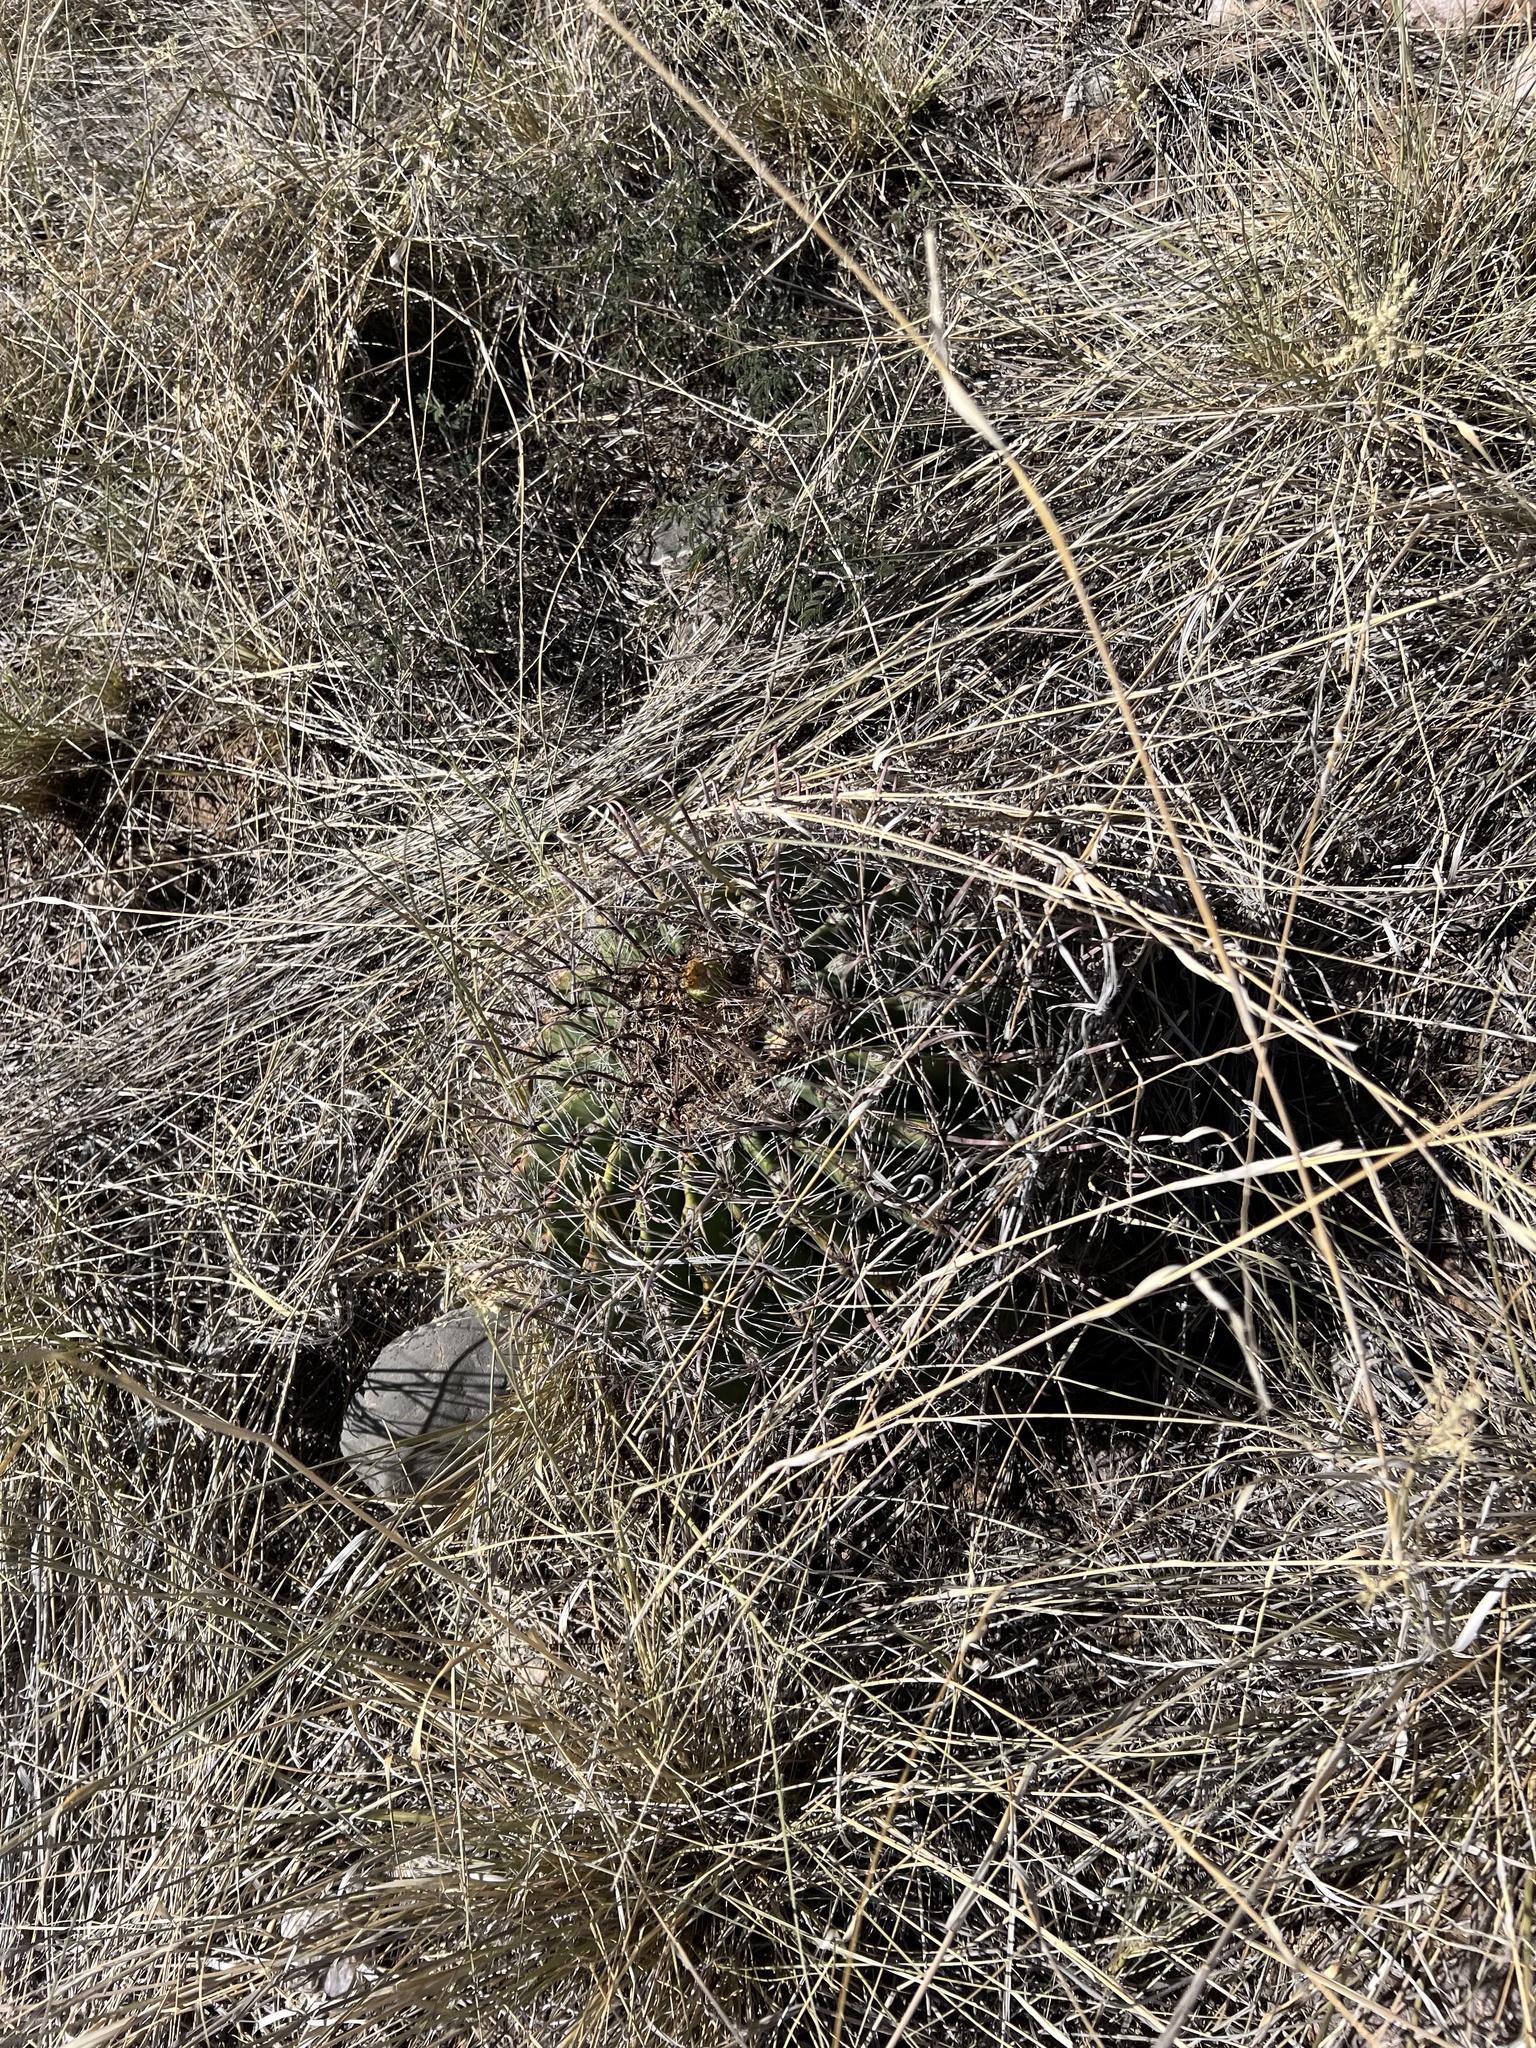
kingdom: Plantae
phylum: Tracheophyta
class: Magnoliopsida
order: Caryophyllales
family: Cactaceae
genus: Ferocactus
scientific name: Ferocactus wislizeni
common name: Candy barrel cactus
